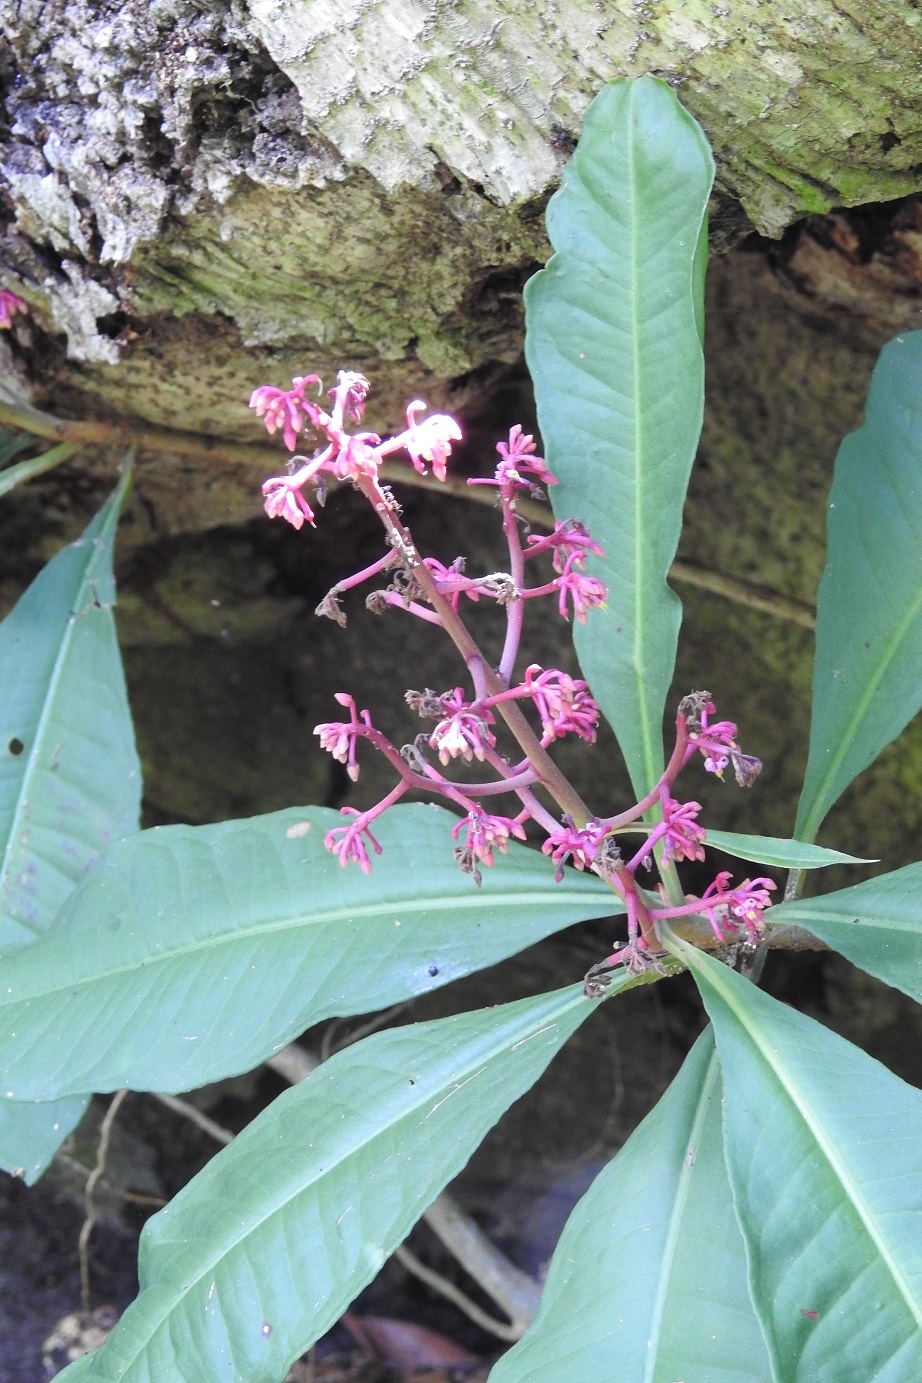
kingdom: Plantae
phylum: Tracheophyta
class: Magnoliopsida
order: Ericales
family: Primulaceae
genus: Parathesis
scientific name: Parathesis rufa
